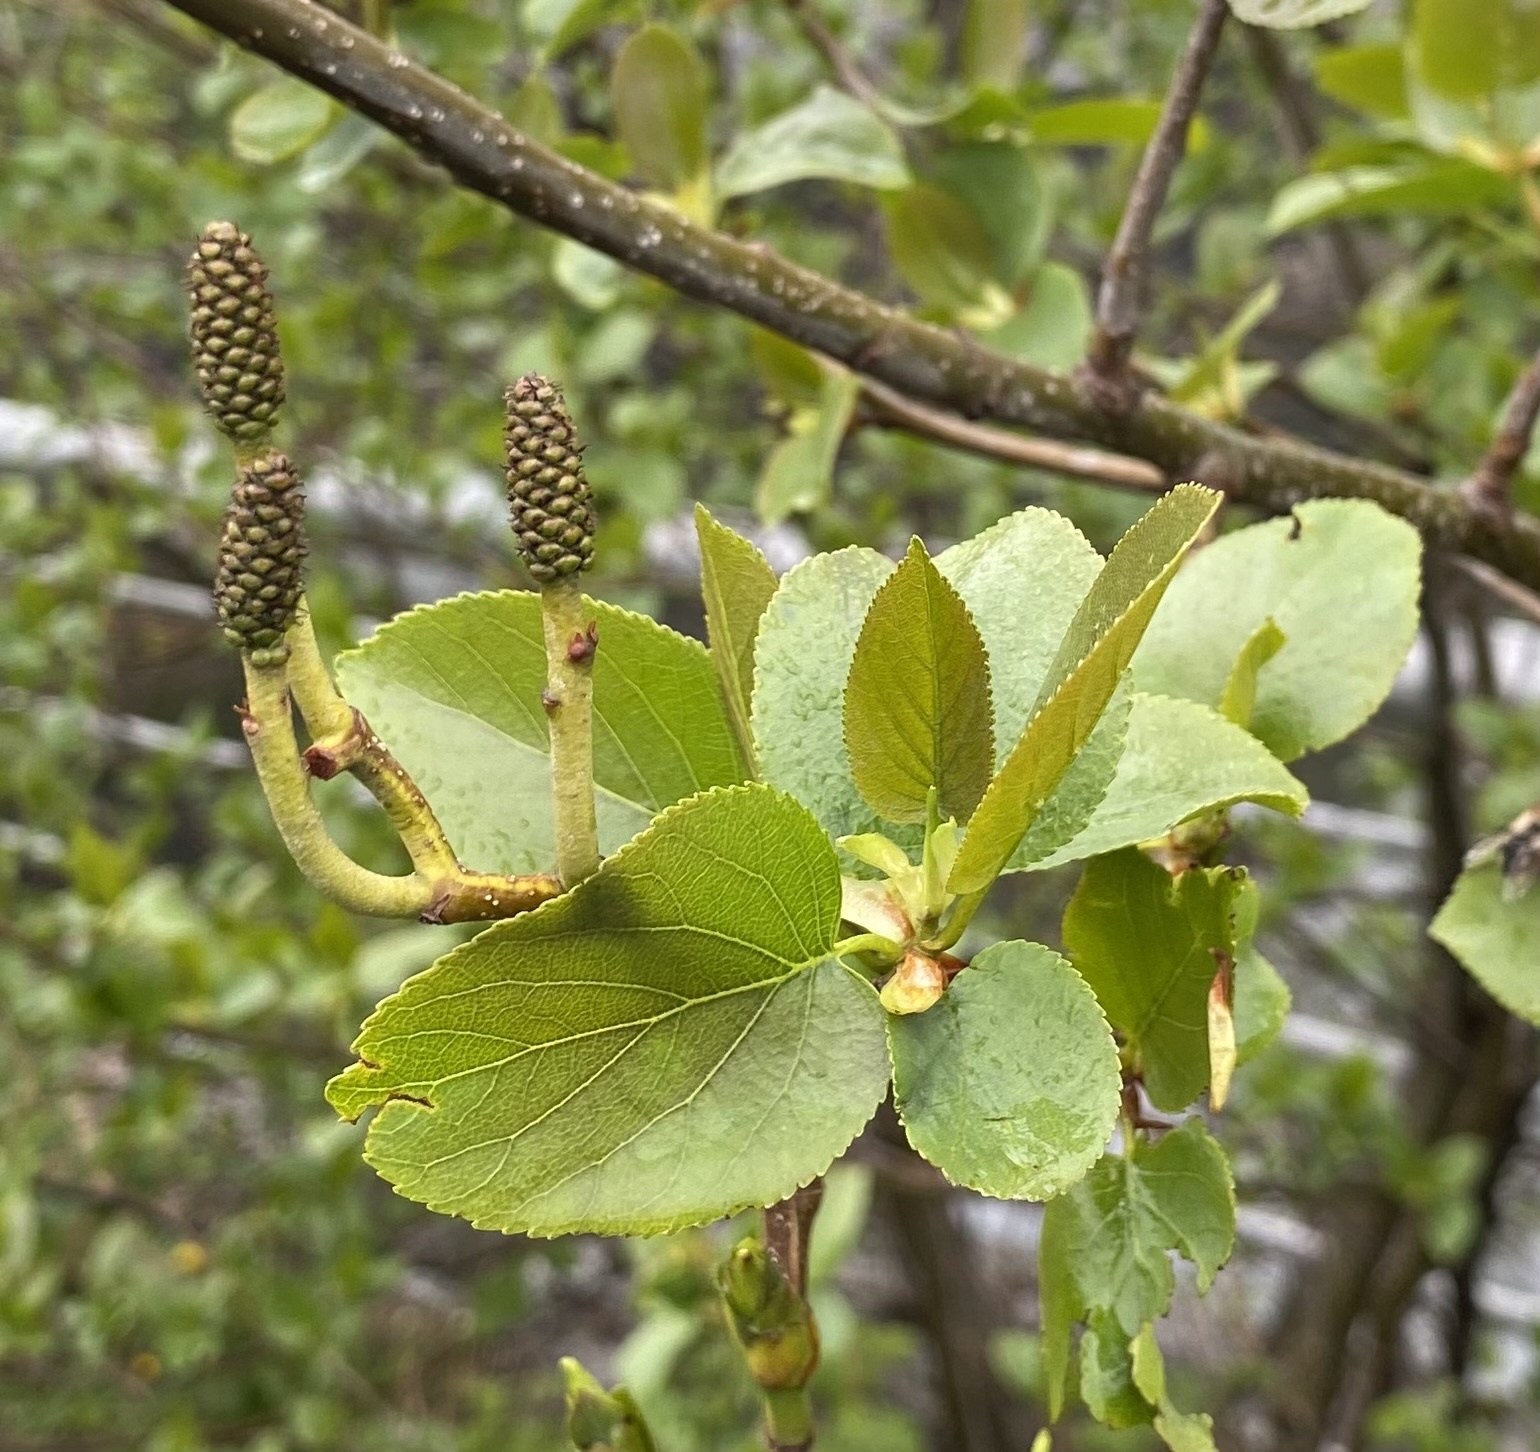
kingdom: Plantae
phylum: Tracheophyta
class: Magnoliopsida
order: Fagales
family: Betulaceae
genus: Alnus
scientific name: Alnus cordata
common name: Italian alder
